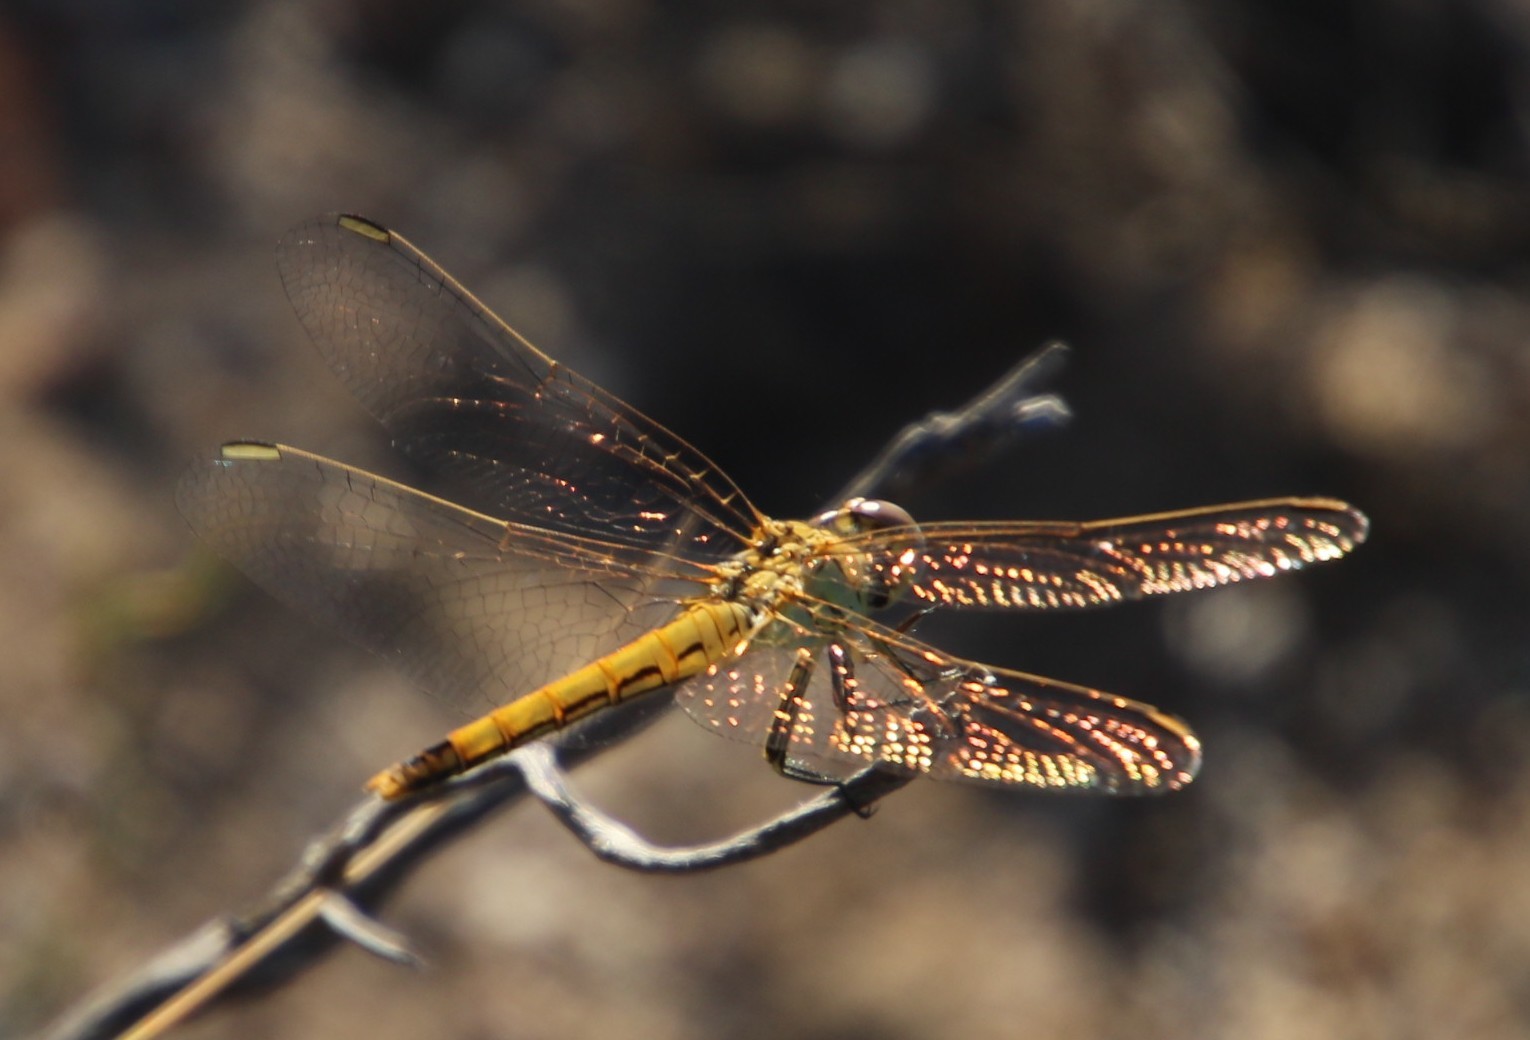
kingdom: Animalia
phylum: Arthropoda
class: Insecta
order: Odonata
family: Libellulidae
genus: Sympetrum
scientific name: Sympetrum fonscolombii
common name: Red-veined darter
